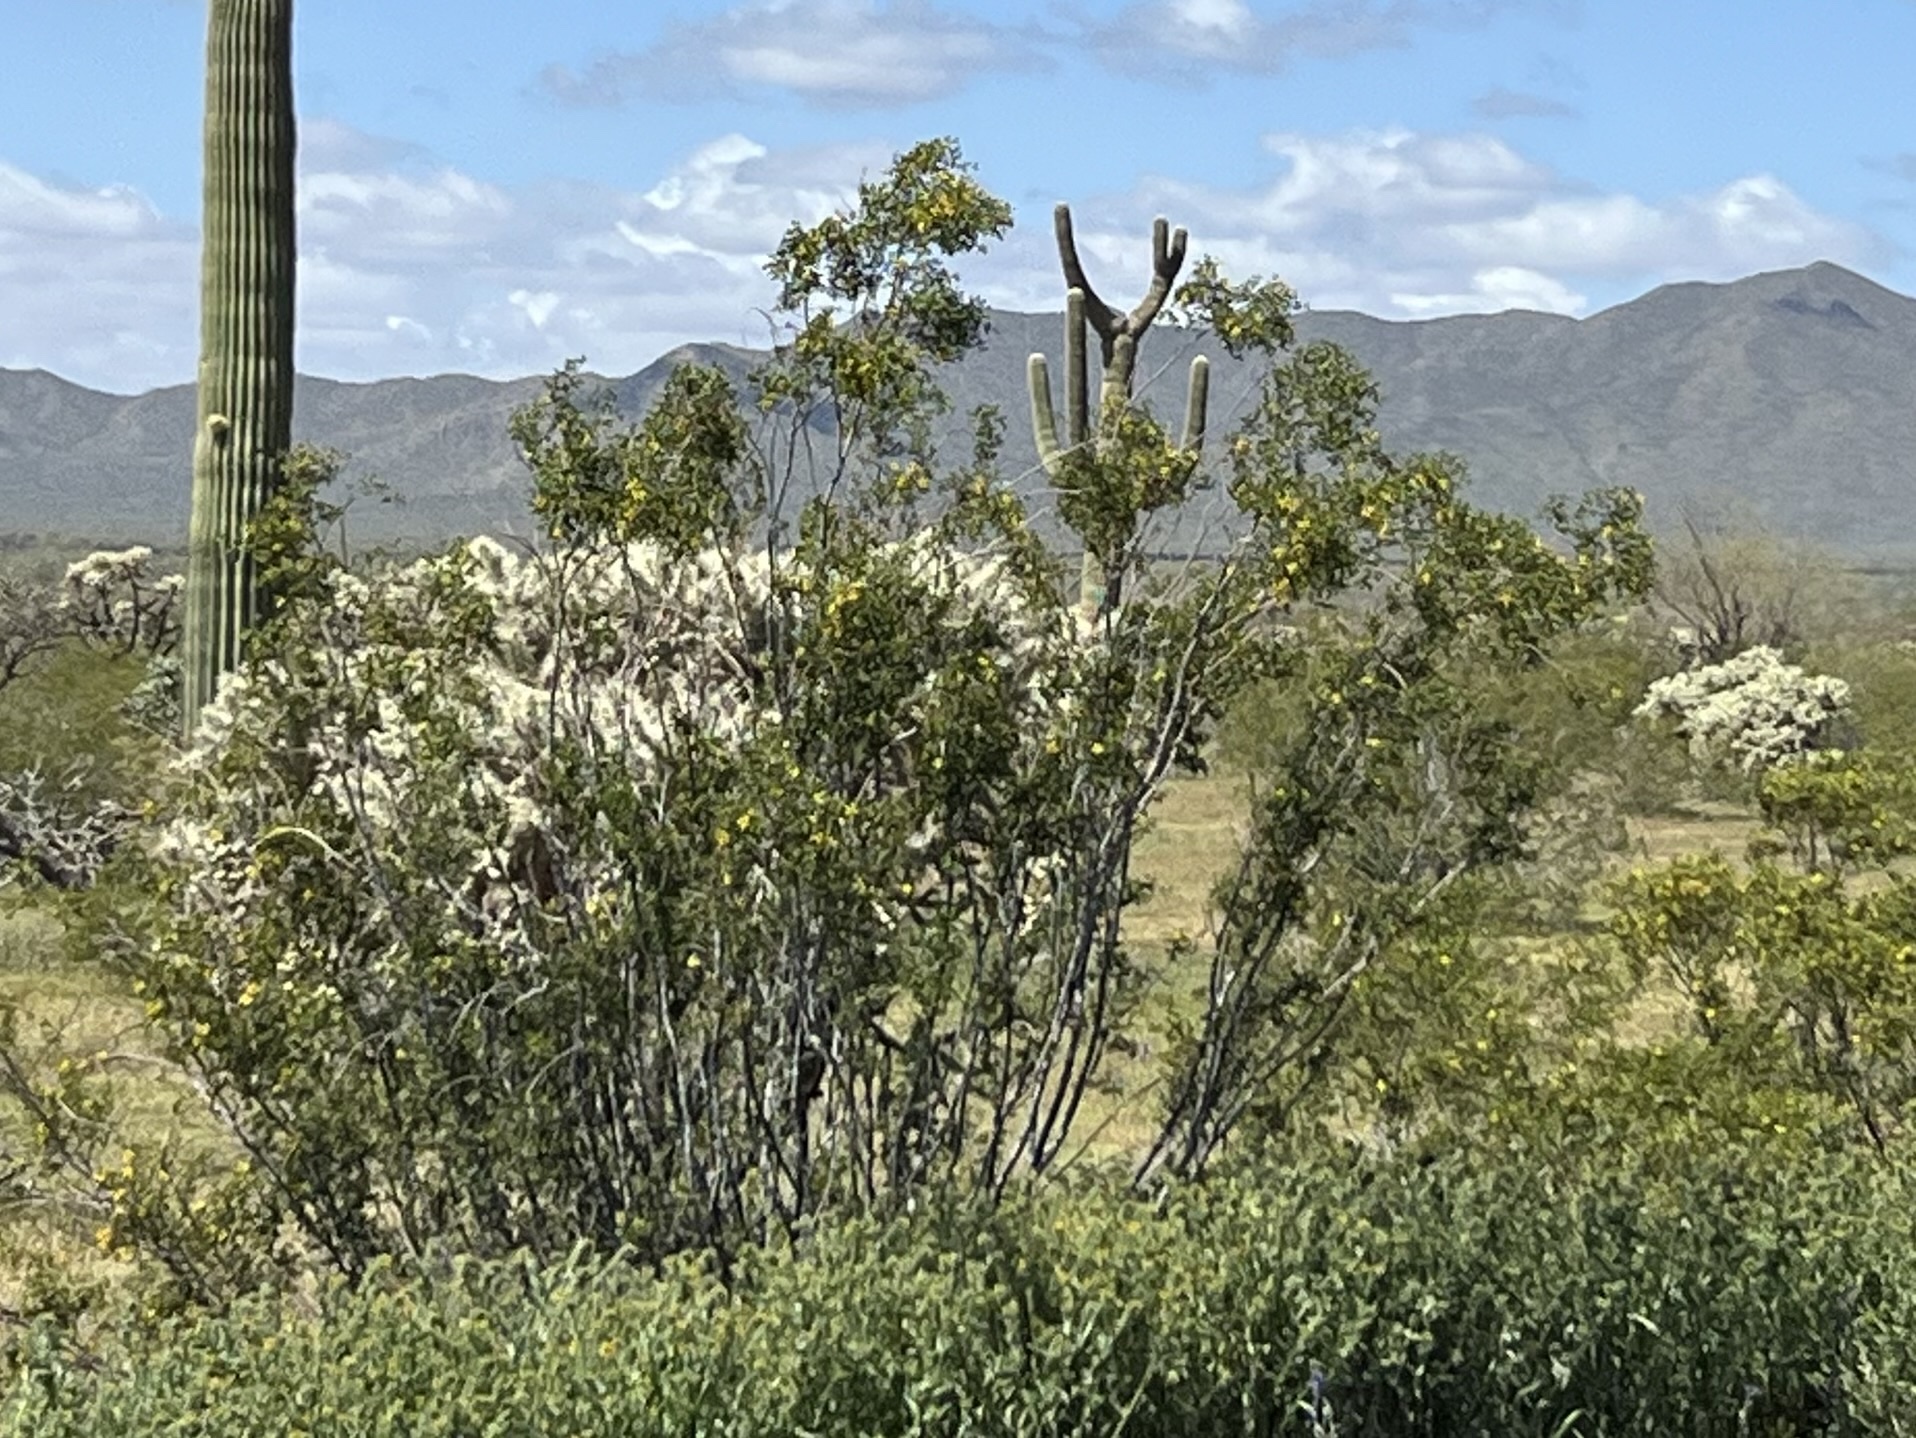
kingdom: Plantae
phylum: Tracheophyta
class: Magnoliopsida
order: Zygophyllales
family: Zygophyllaceae
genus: Larrea
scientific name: Larrea tridentata
